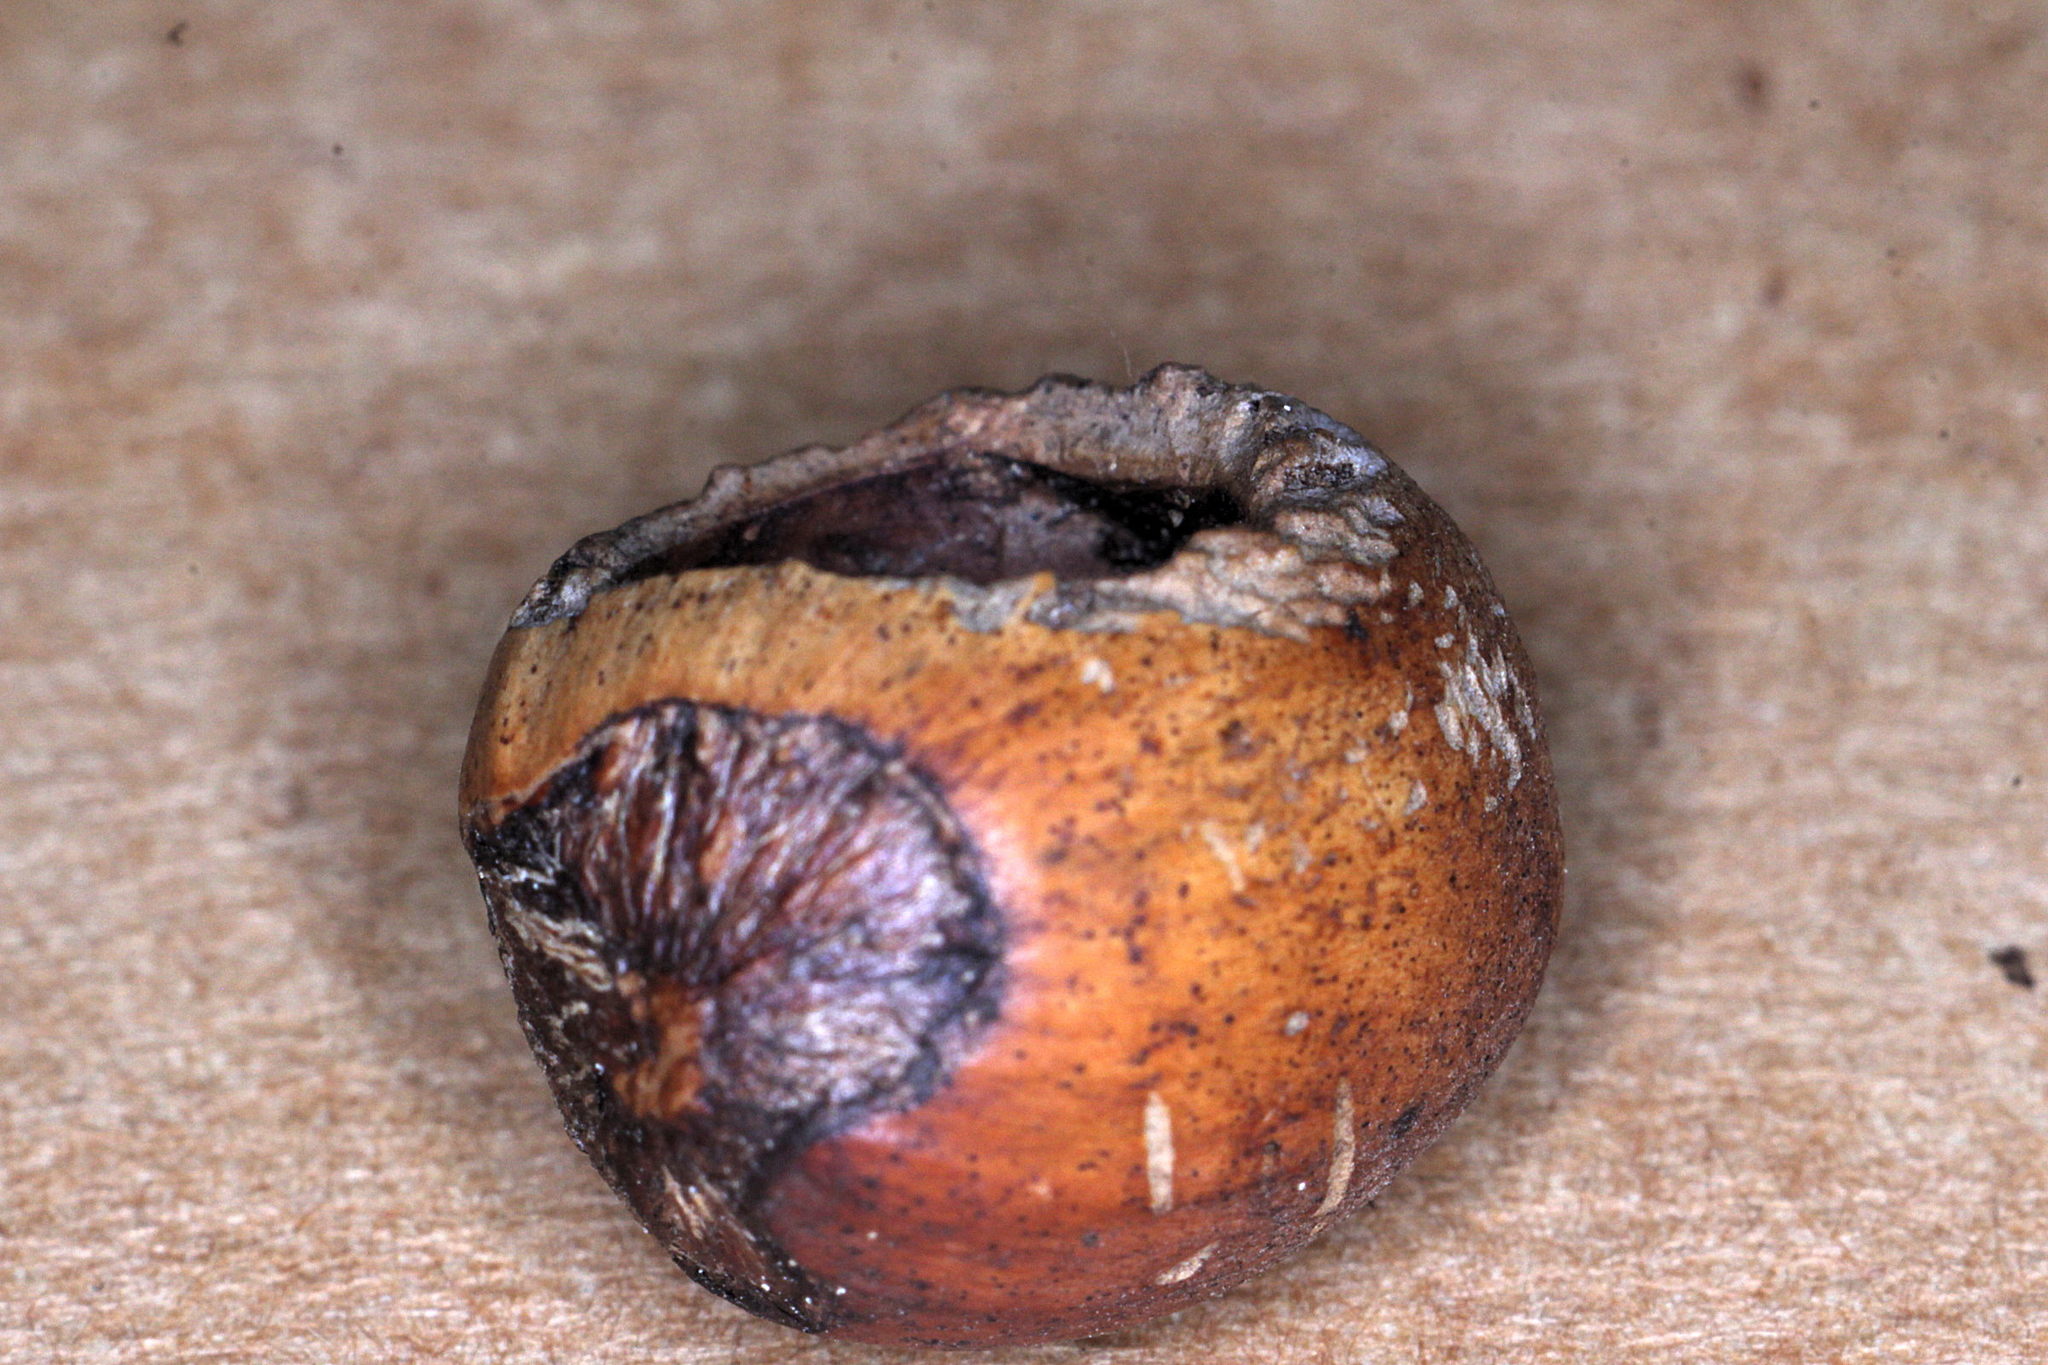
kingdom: Animalia
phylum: Chordata
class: Mammalia
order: Rodentia
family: Gliridae
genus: Muscardinus
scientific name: Muscardinus avellanarius
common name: Hazel dormouse
